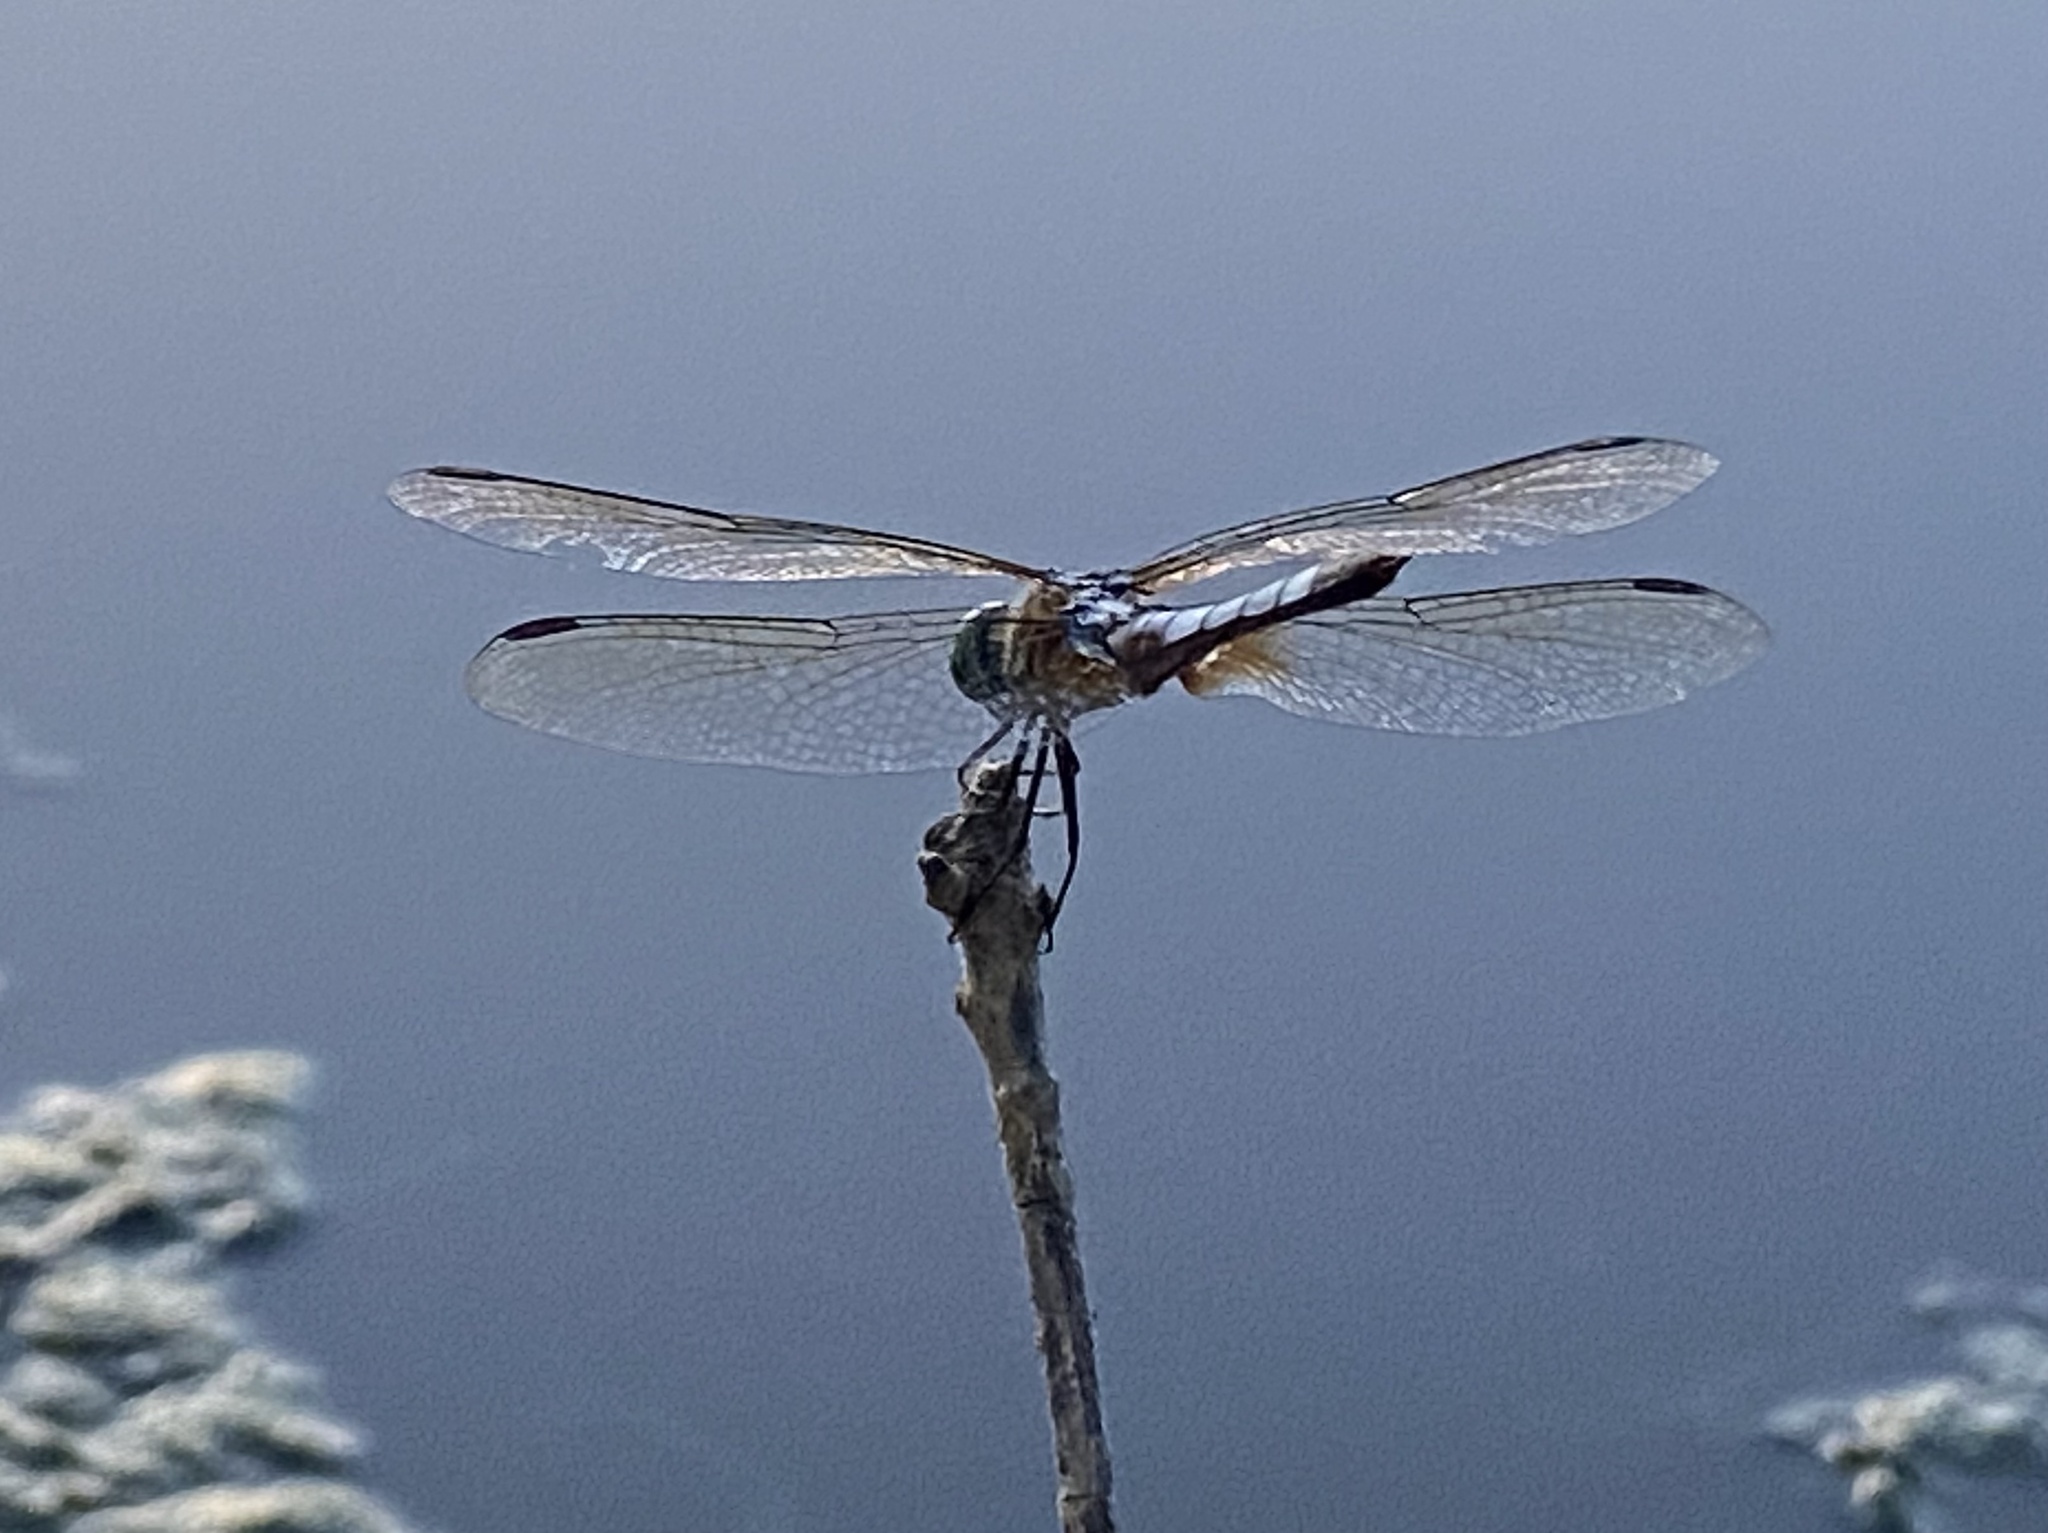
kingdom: Animalia
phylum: Arthropoda
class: Insecta
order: Odonata
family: Libellulidae
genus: Pachydiplax
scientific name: Pachydiplax longipennis
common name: Blue dasher
